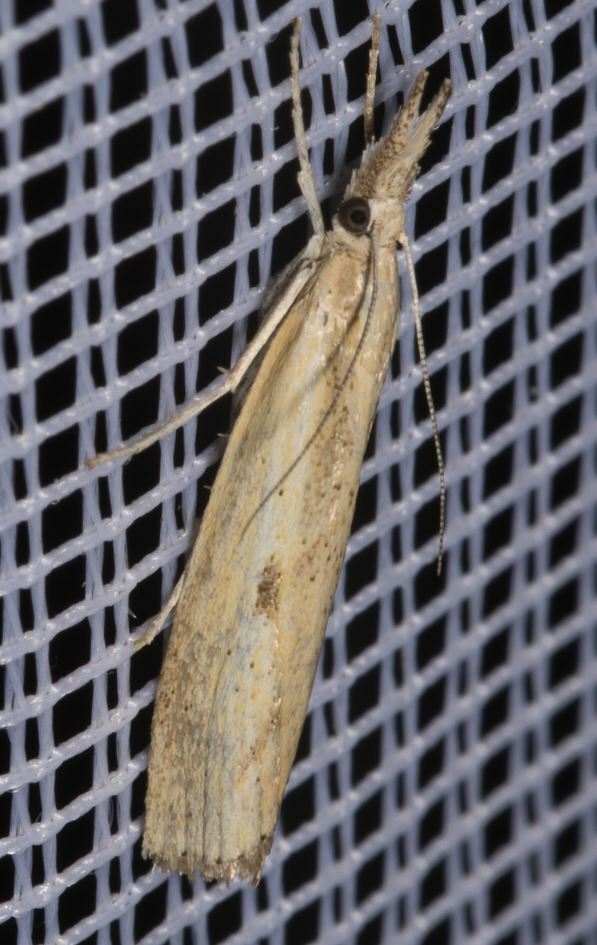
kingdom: Animalia
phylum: Arthropoda
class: Insecta
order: Lepidoptera
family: Crambidae
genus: Agriphila
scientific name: Agriphila inquinatella
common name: Barred grass-veneer
